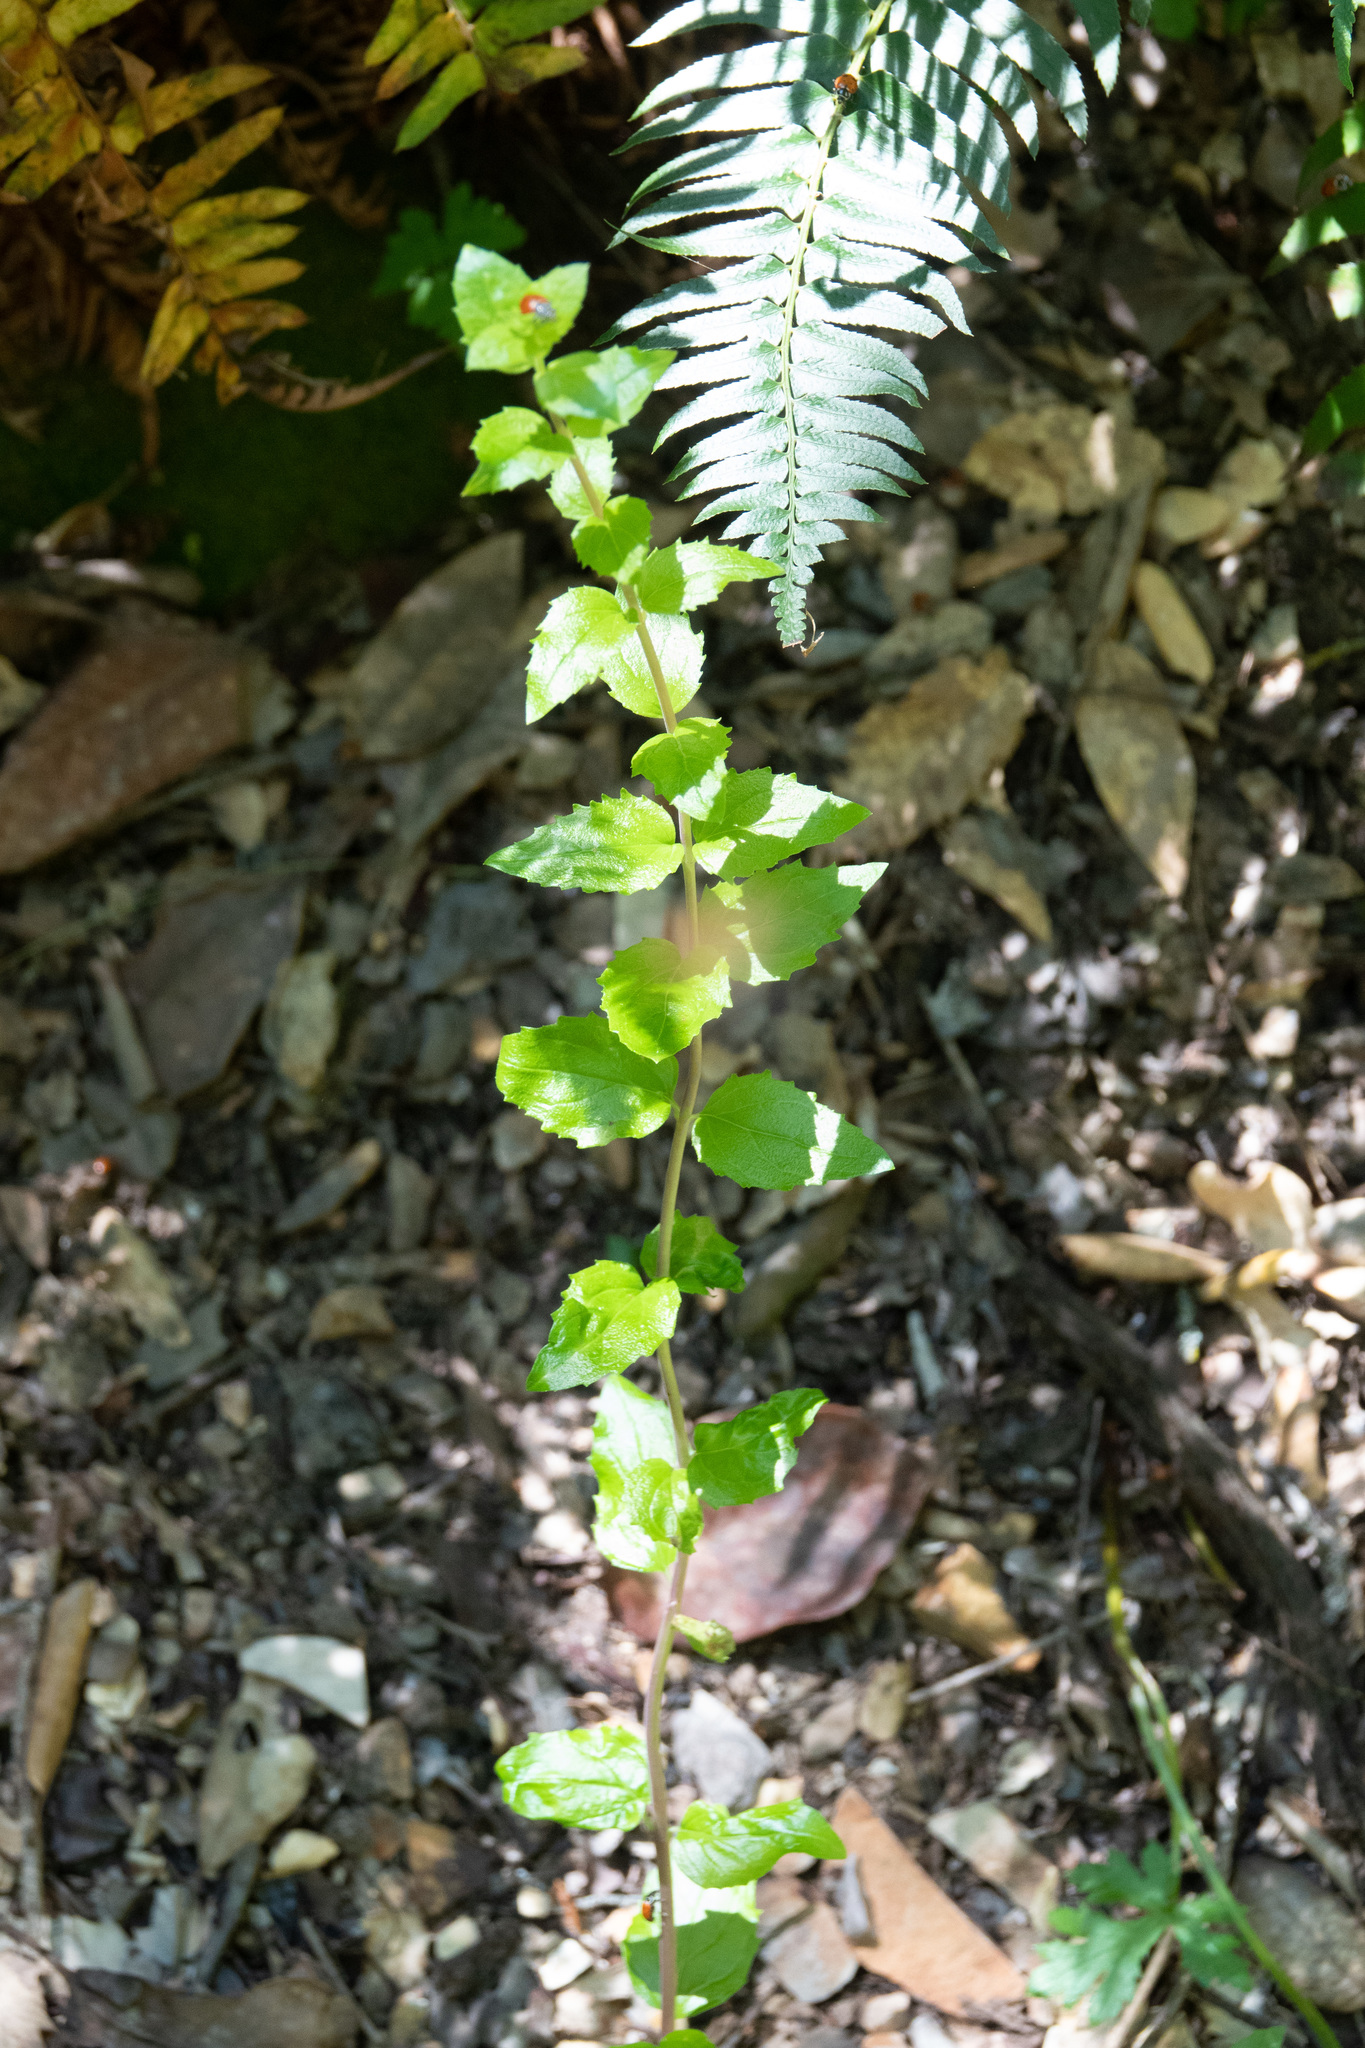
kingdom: Plantae
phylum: Tracheophyta
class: Magnoliopsida
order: Lamiales
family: Plantaginaceae
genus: Keckiella
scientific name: Keckiella cordifolia
